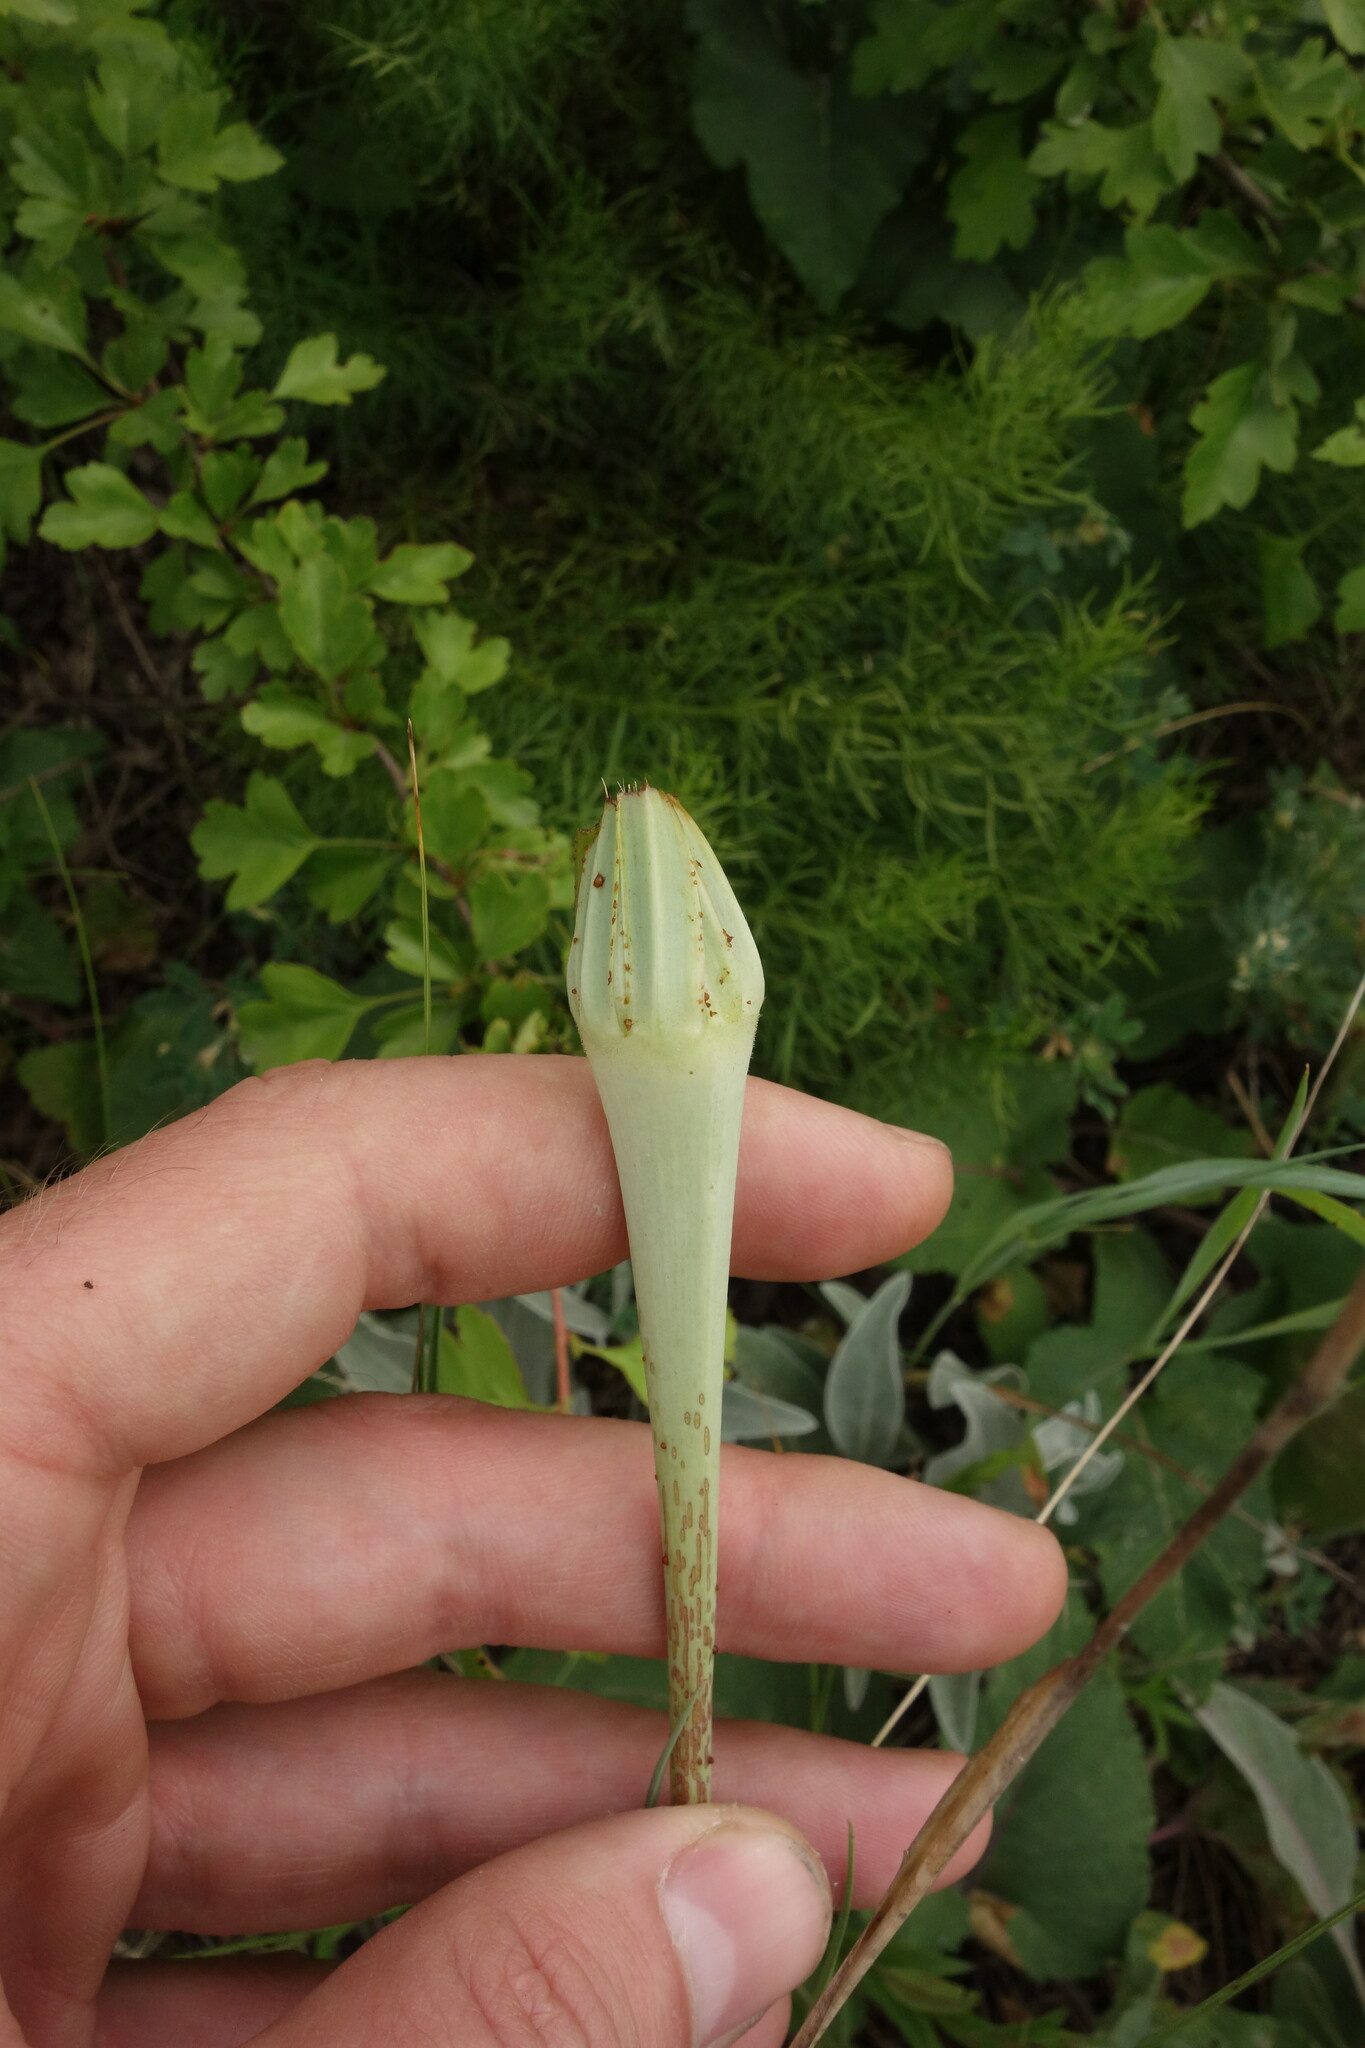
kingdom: Plantae
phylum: Tracheophyta
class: Magnoliopsida
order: Asterales
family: Asteraceae
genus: Tragopogon
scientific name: Tragopogon dubius
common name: Yellow salsify
